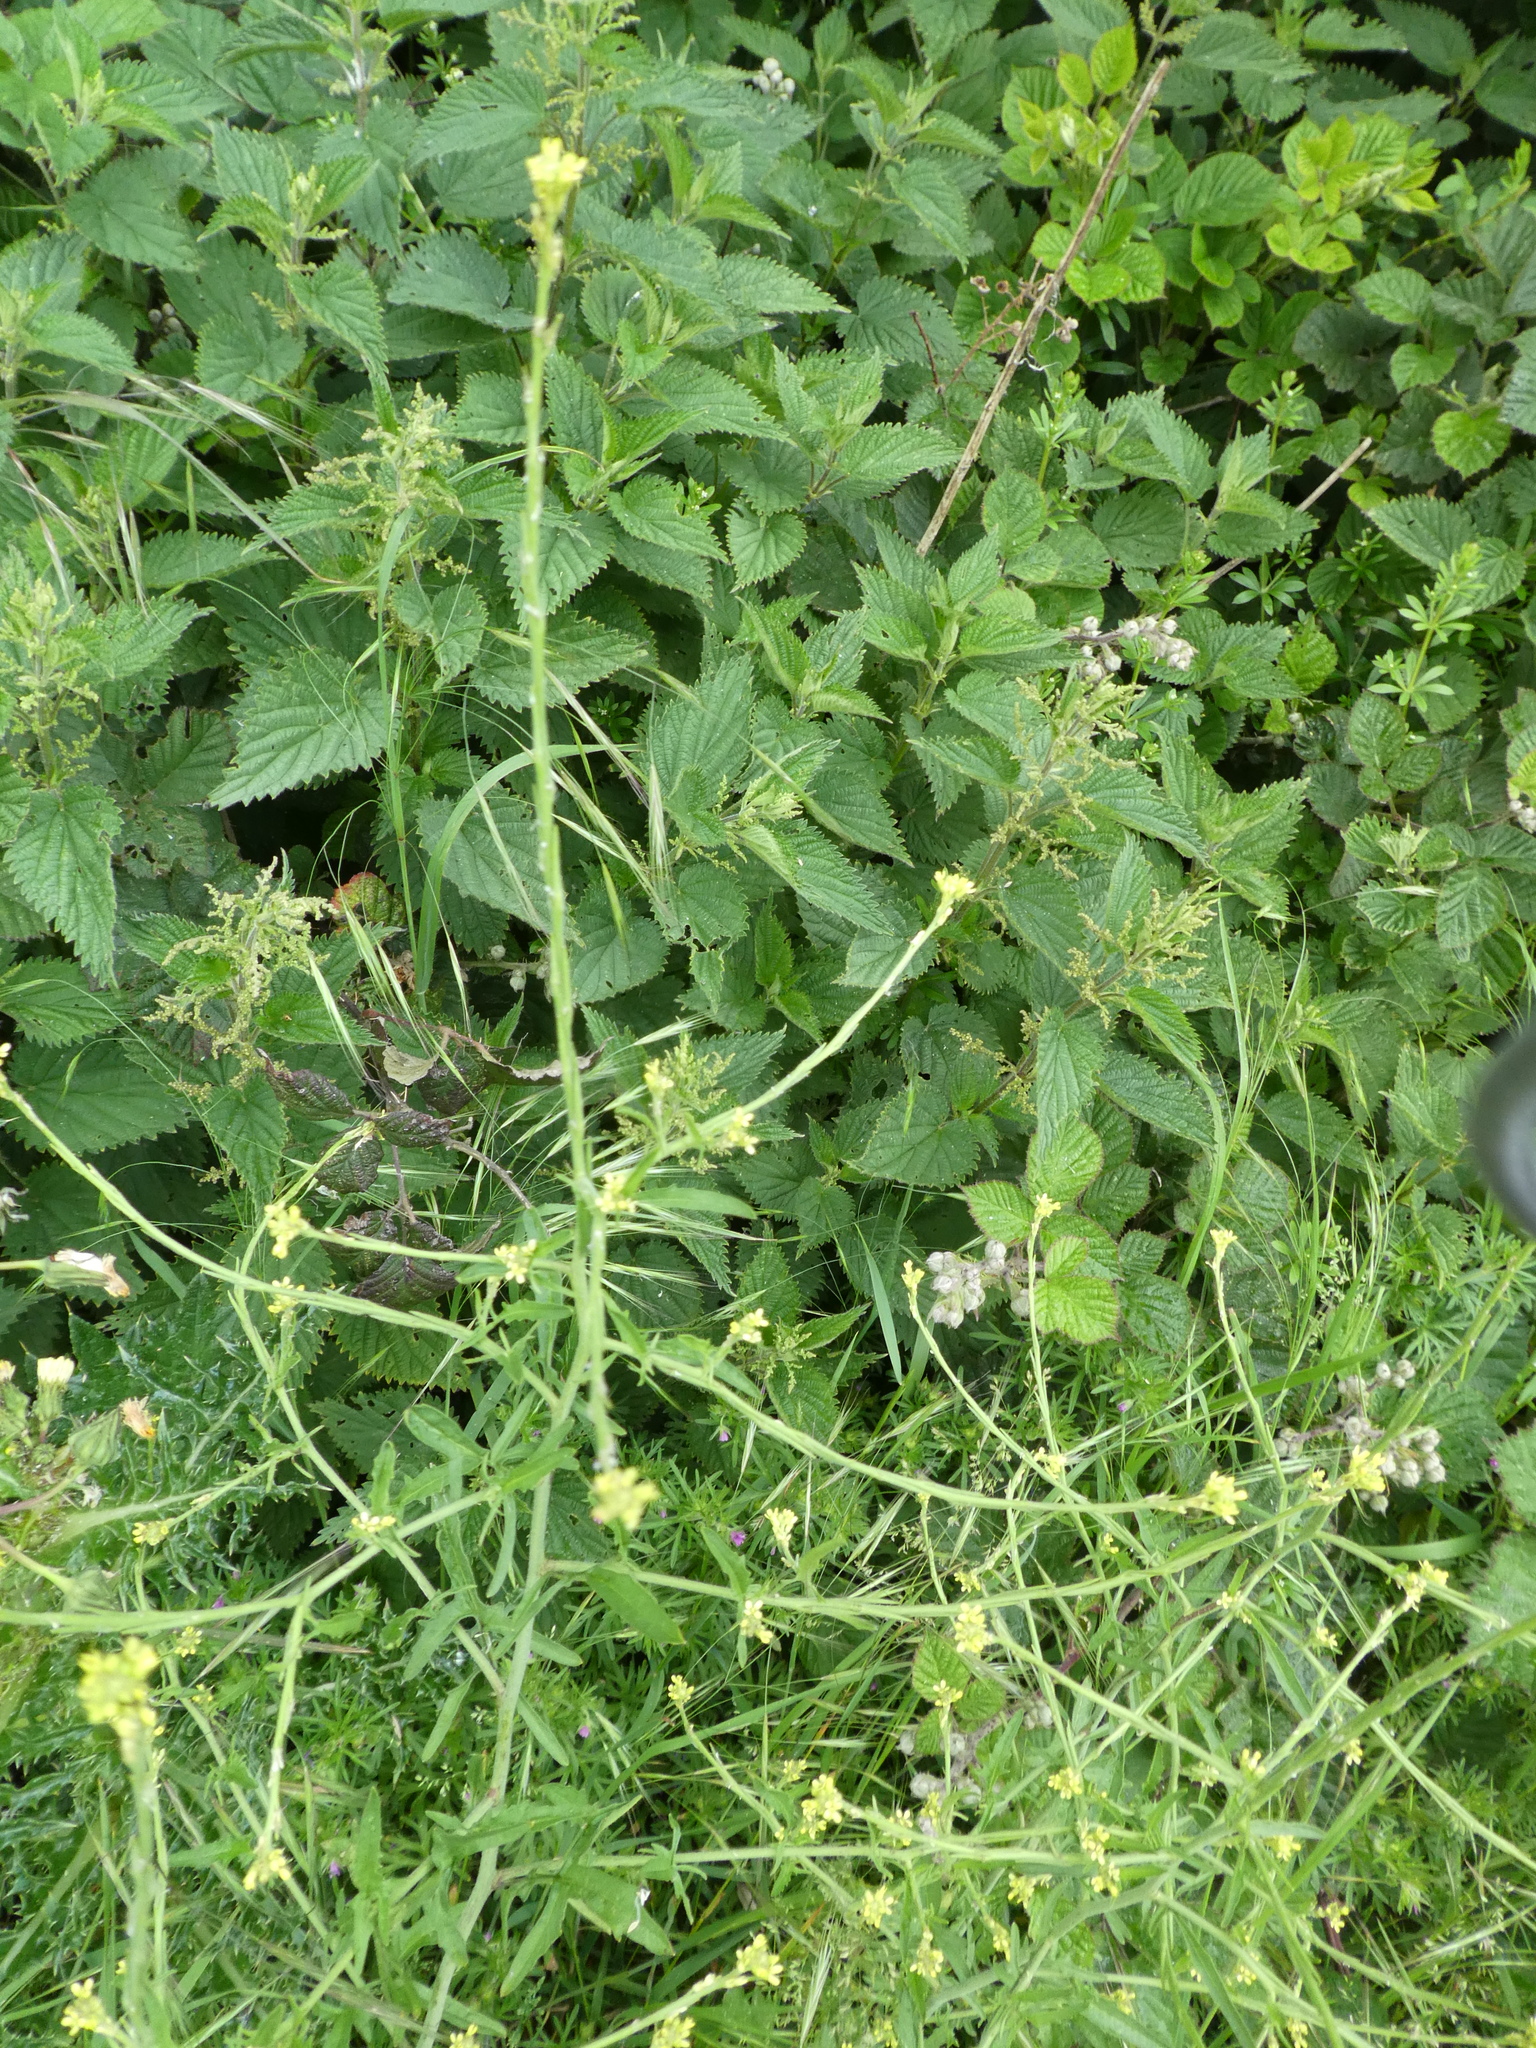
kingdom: Plantae
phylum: Tracheophyta
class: Magnoliopsida
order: Brassicales
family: Brassicaceae
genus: Sisymbrium
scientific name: Sisymbrium officinale
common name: Hedge mustard
